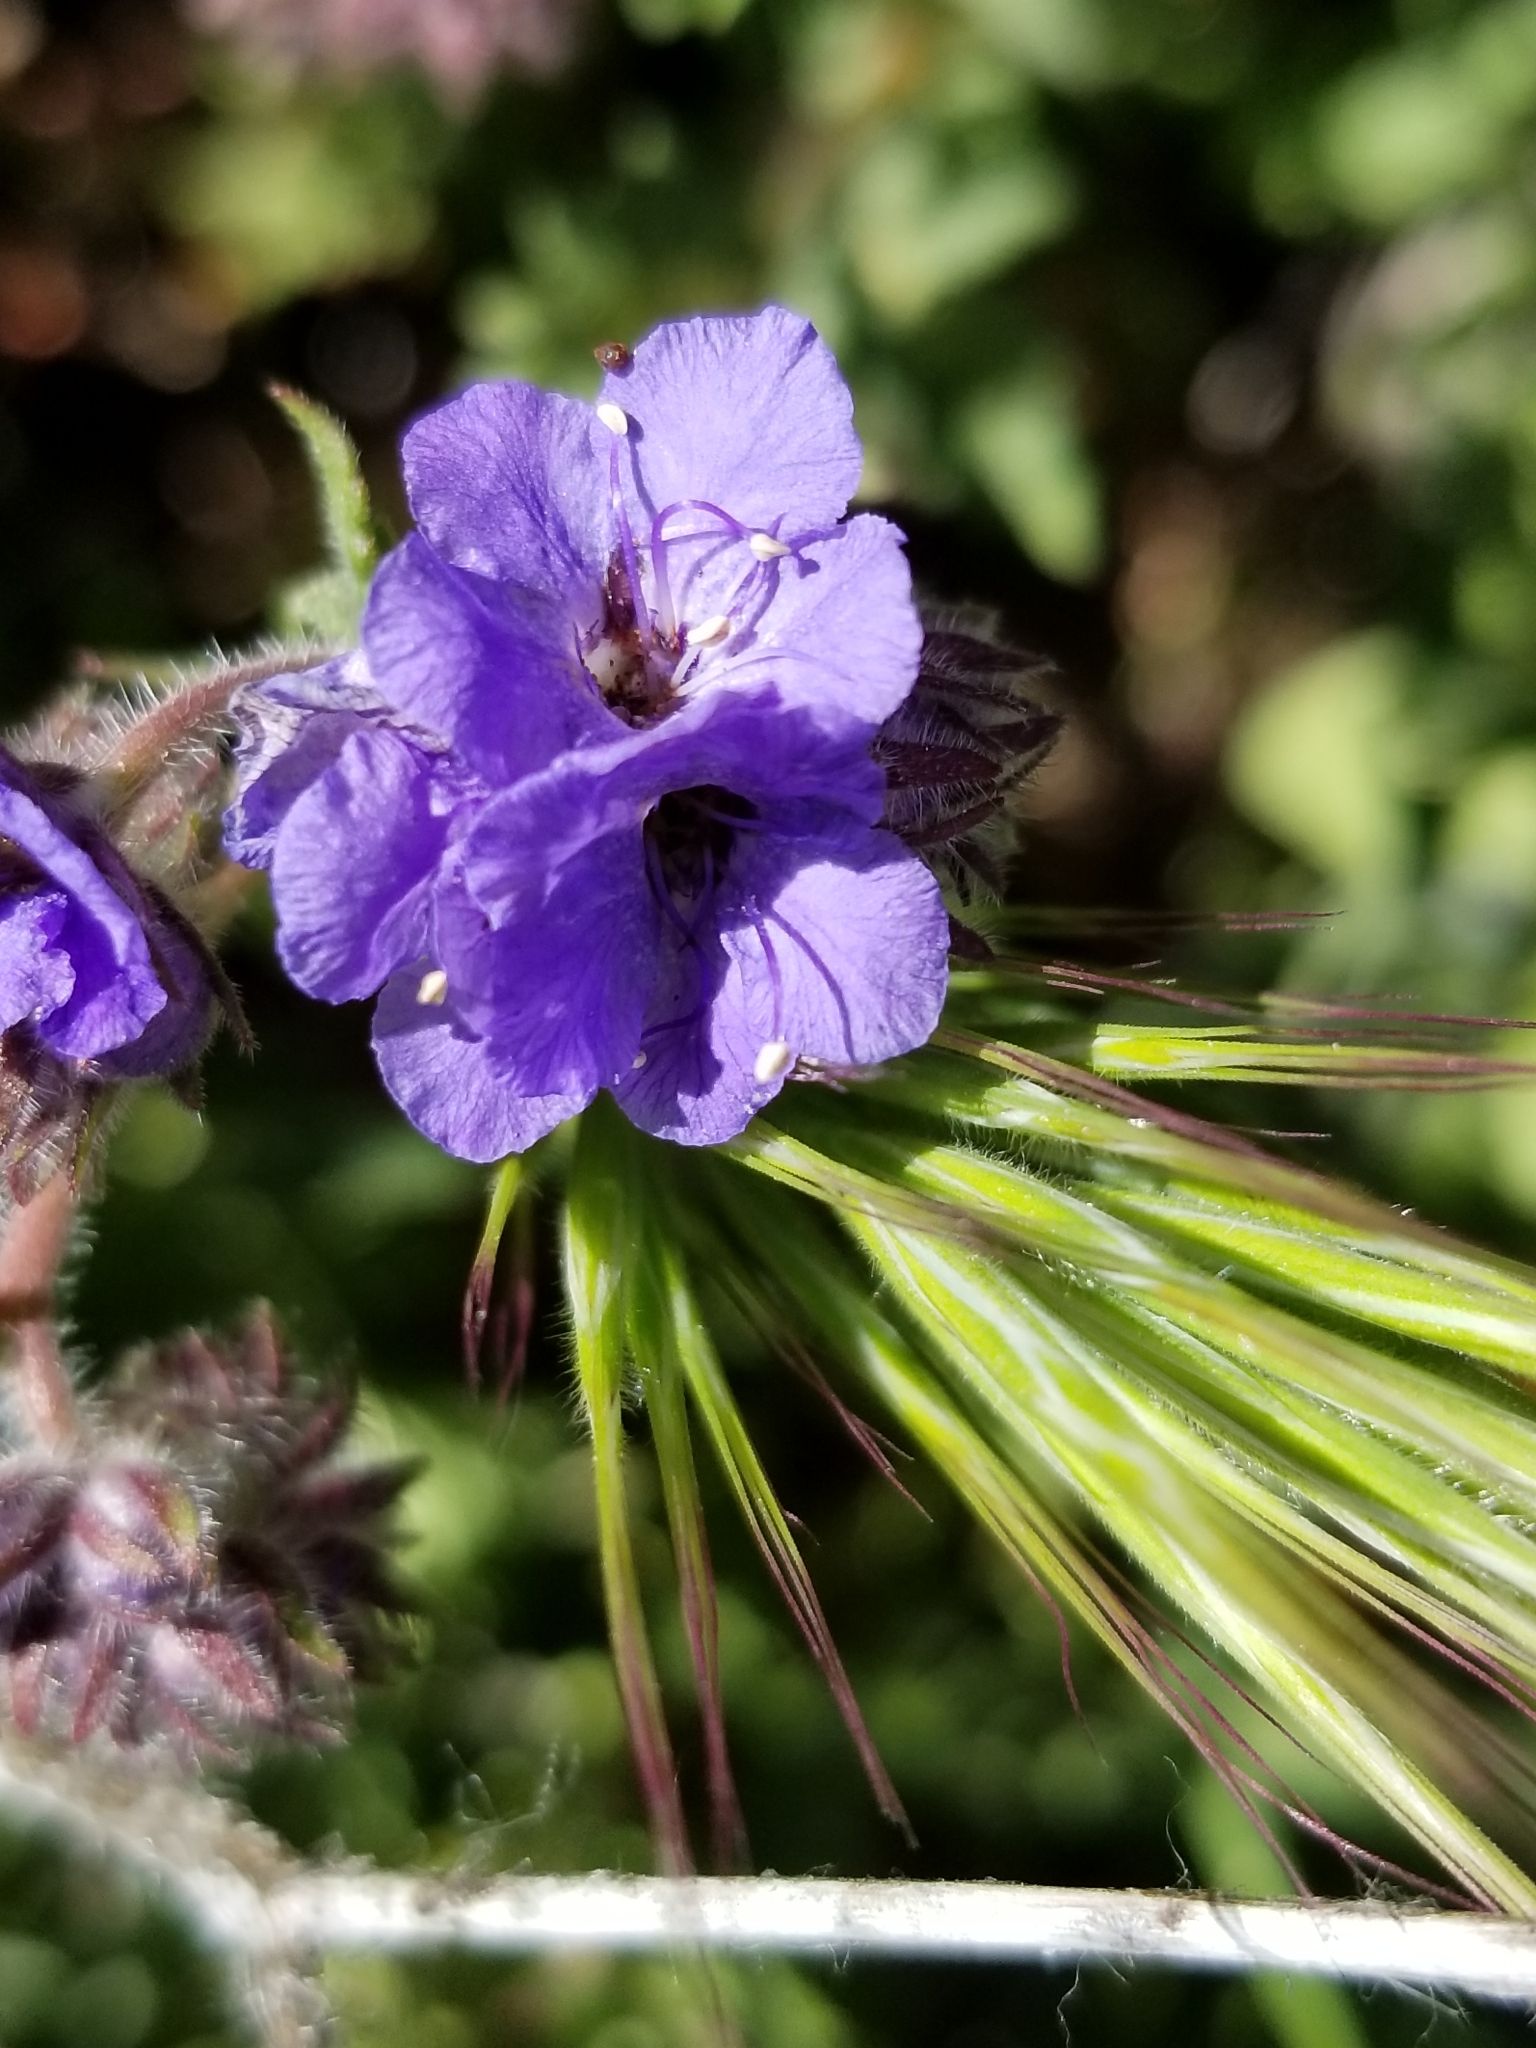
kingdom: Plantae
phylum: Tracheophyta
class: Magnoliopsida
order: Boraginales
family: Hydrophyllaceae
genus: Phacelia
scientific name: Phacelia distans
